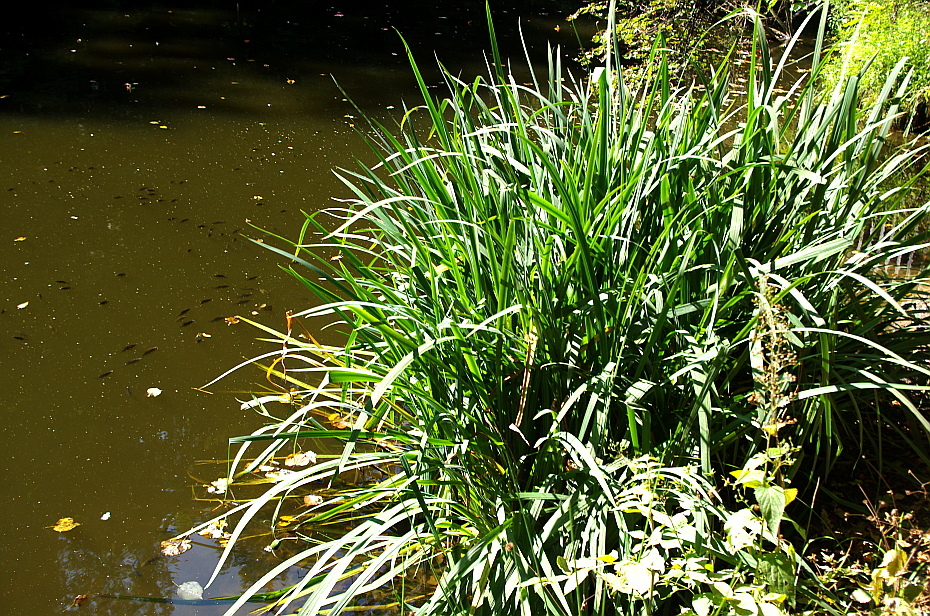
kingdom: Plantae
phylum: Tracheophyta
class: Liliopsida
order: Asparagales
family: Iridaceae
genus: Iris
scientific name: Iris pseudacorus
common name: Yellow flag
